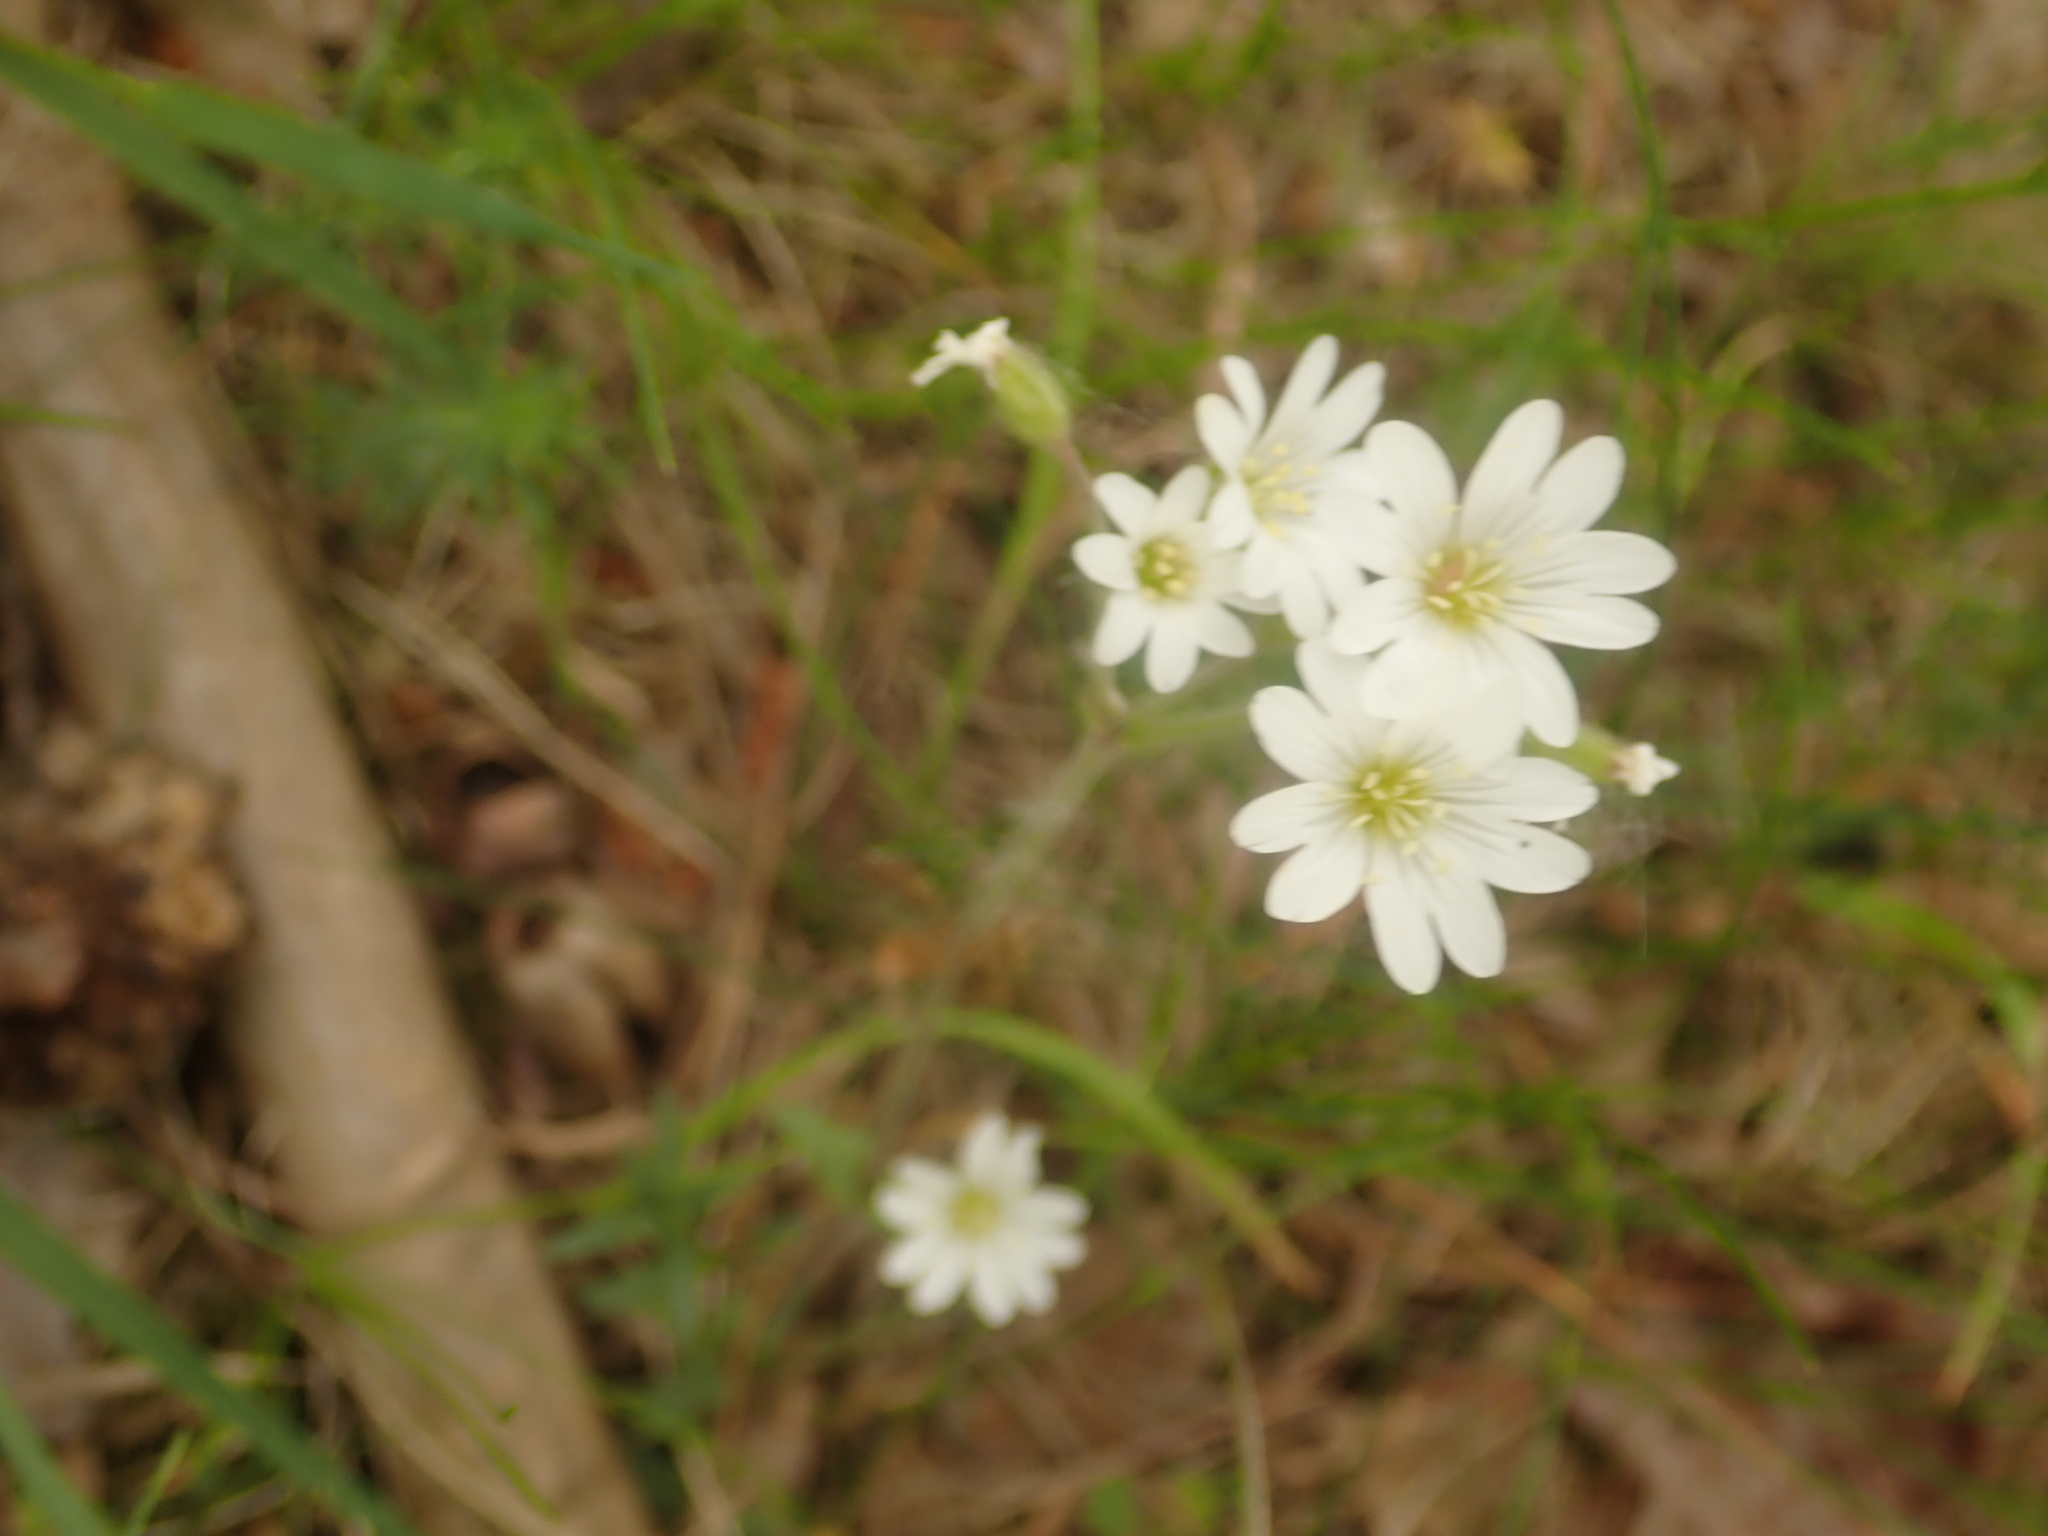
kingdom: Plantae
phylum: Tracheophyta
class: Magnoliopsida
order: Caryophyllales
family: Caryophyllaceae
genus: Cerastium
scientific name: Cerastium arvense
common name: Field mouse-ear
